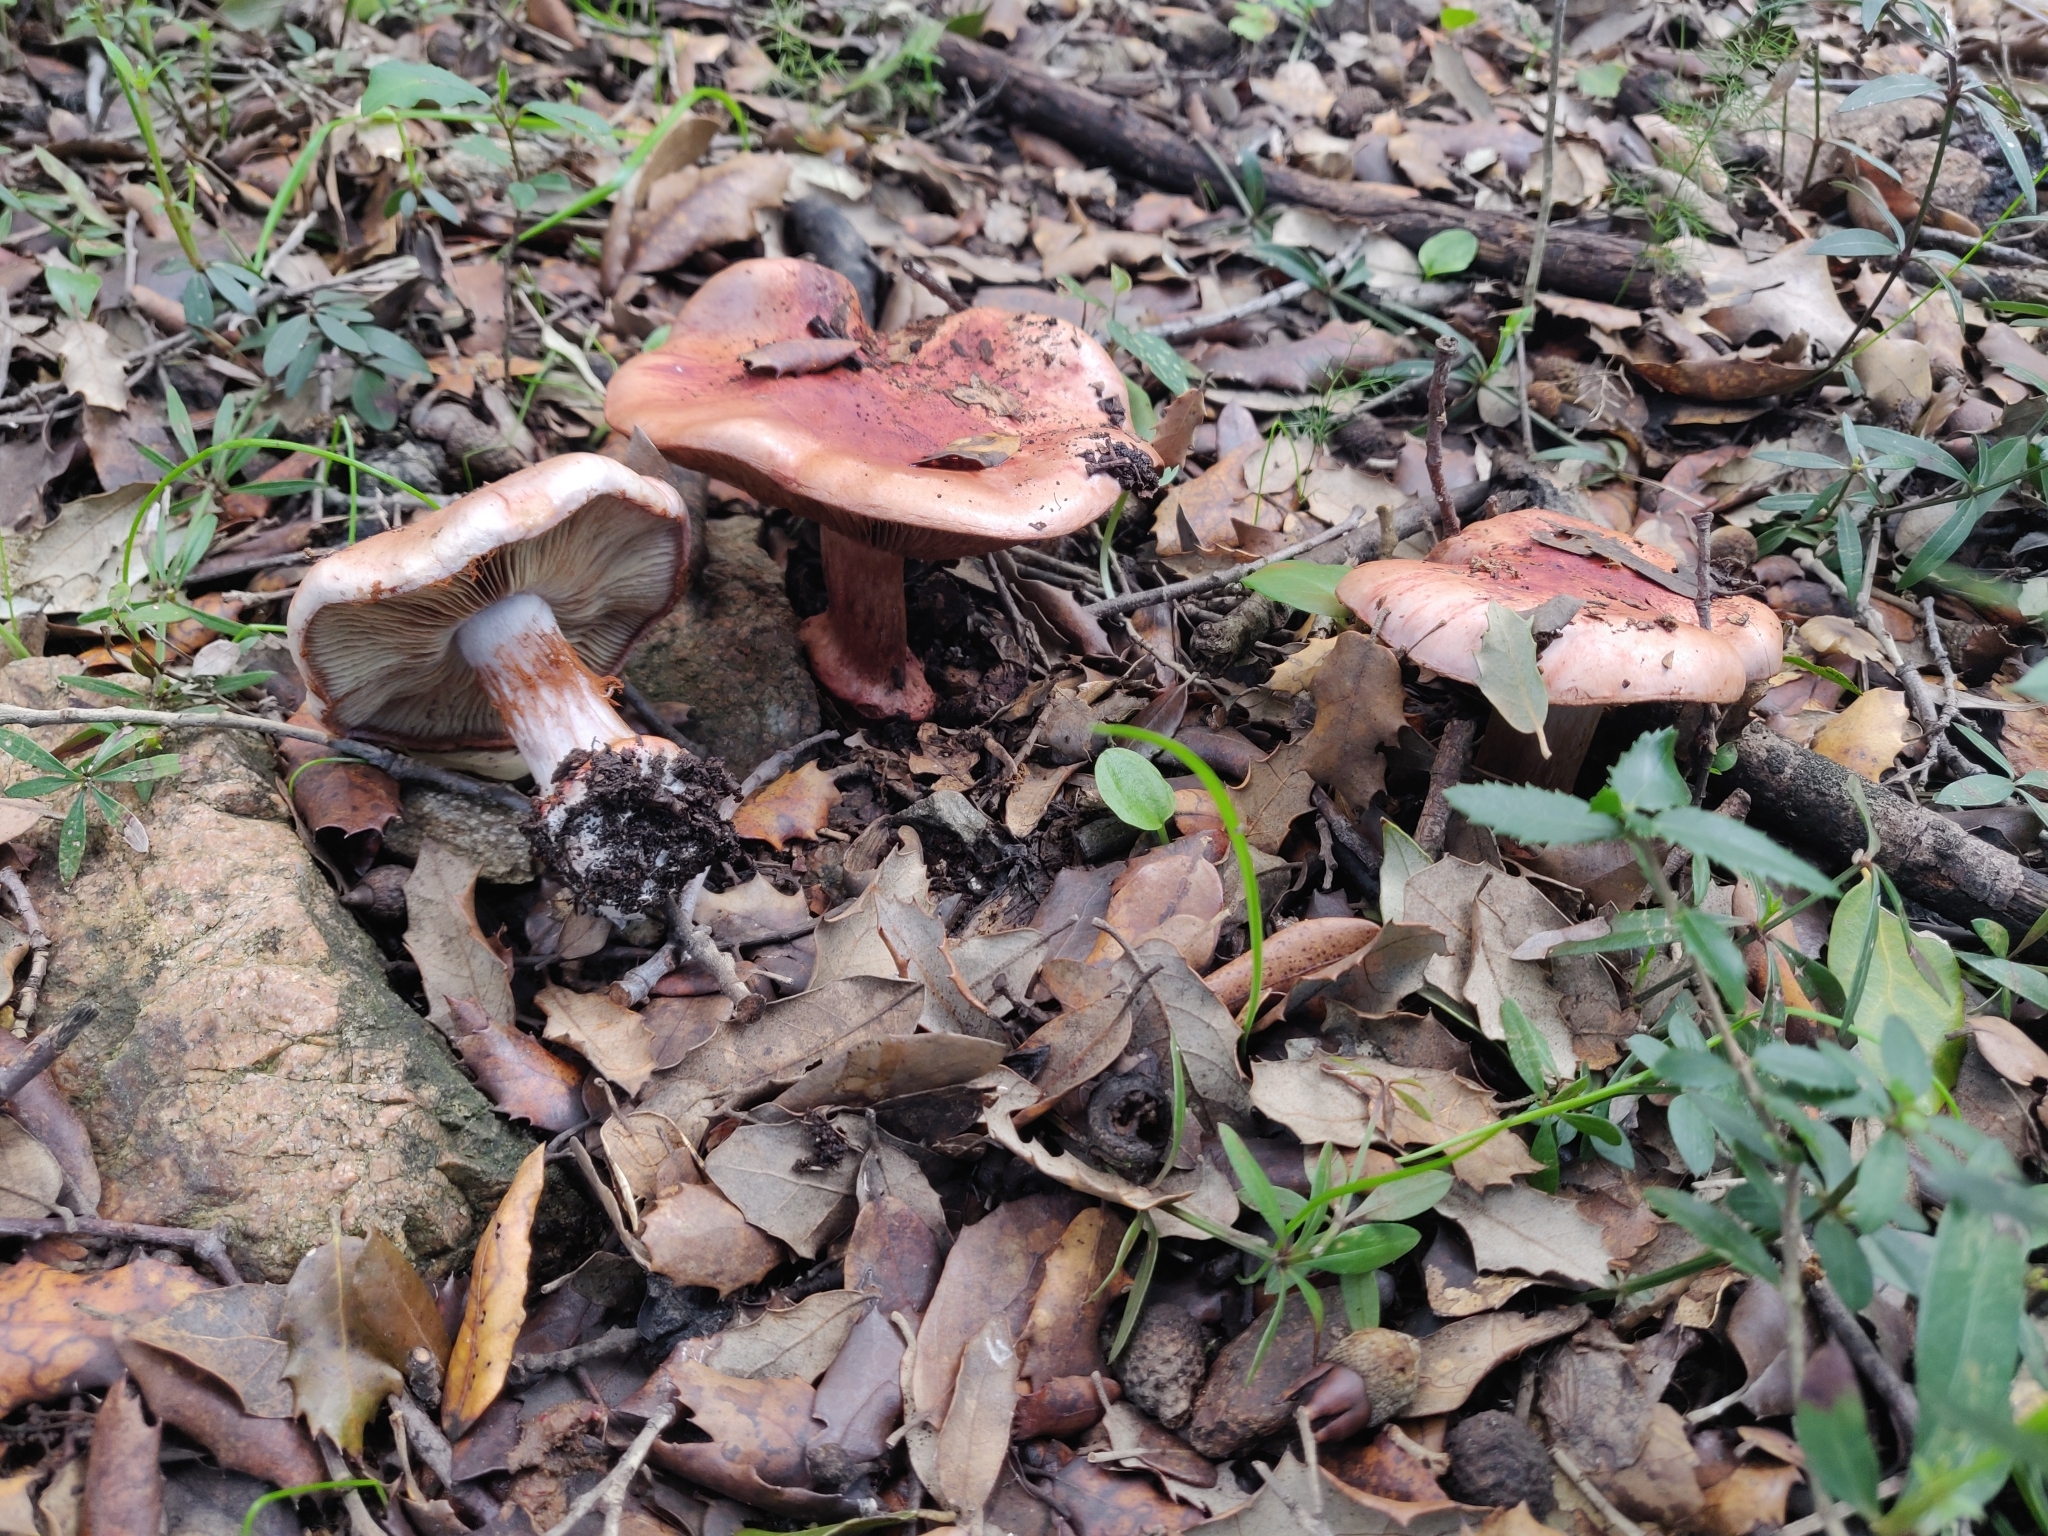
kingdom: Fungi
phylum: Basidiomycota
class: Agaricomycetes
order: Agaricales
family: Cortinariaceae
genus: Calonarius
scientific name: Calonarius rufo-olivaceus
